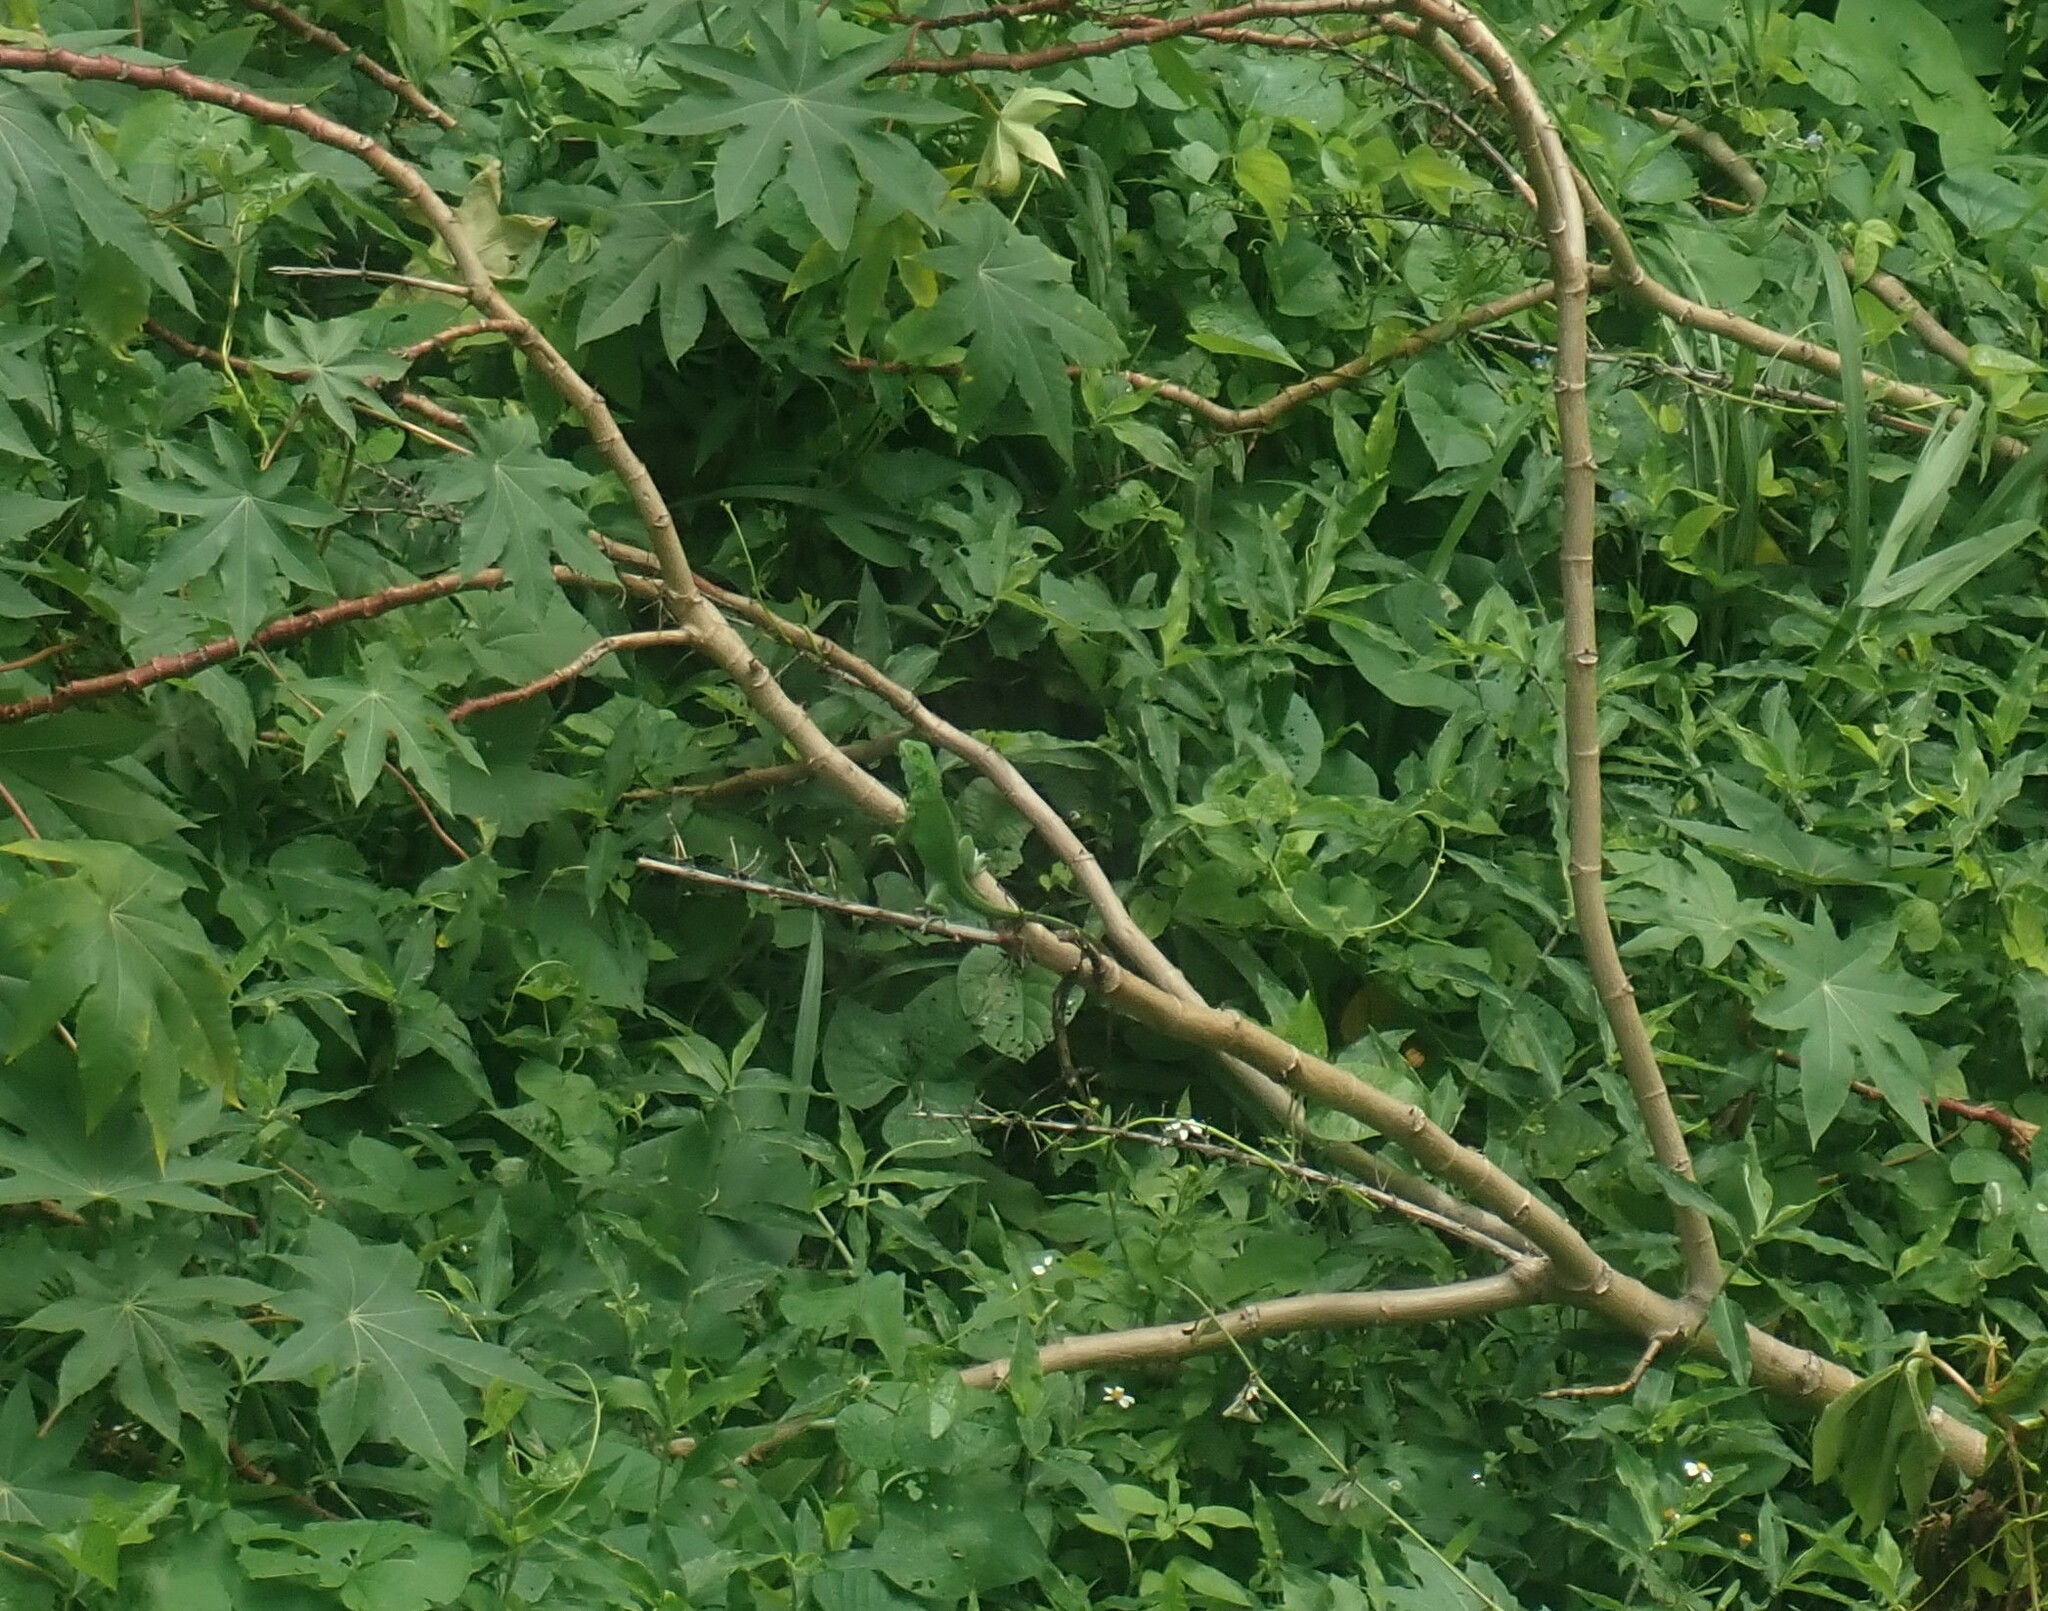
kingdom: Animalia
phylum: Chordata
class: Squamata
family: Iguanidae
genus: Iguana
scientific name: Iguana iguana
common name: Green iguana
